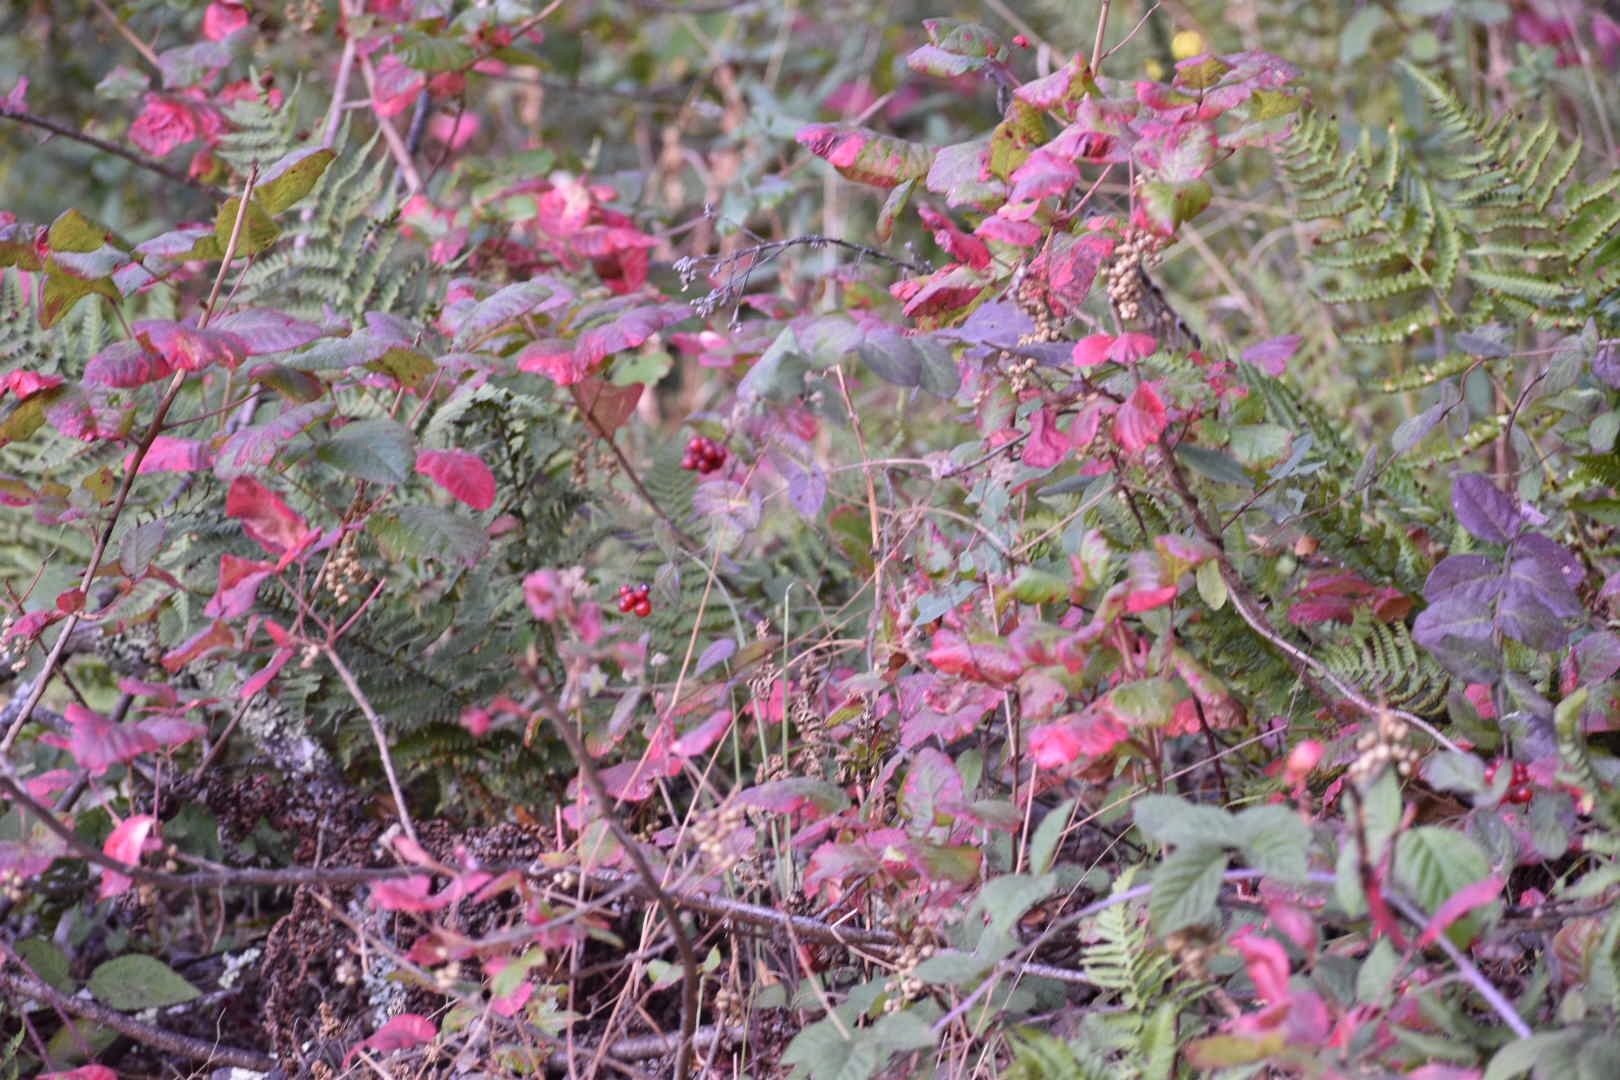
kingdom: Plantae
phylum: Tracheophyta
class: Magnoliopsida
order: Sapindales
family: Anacardiaceae
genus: Toxicodendron
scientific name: Toxicodendron diversilobum
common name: Pacific poison-oak
